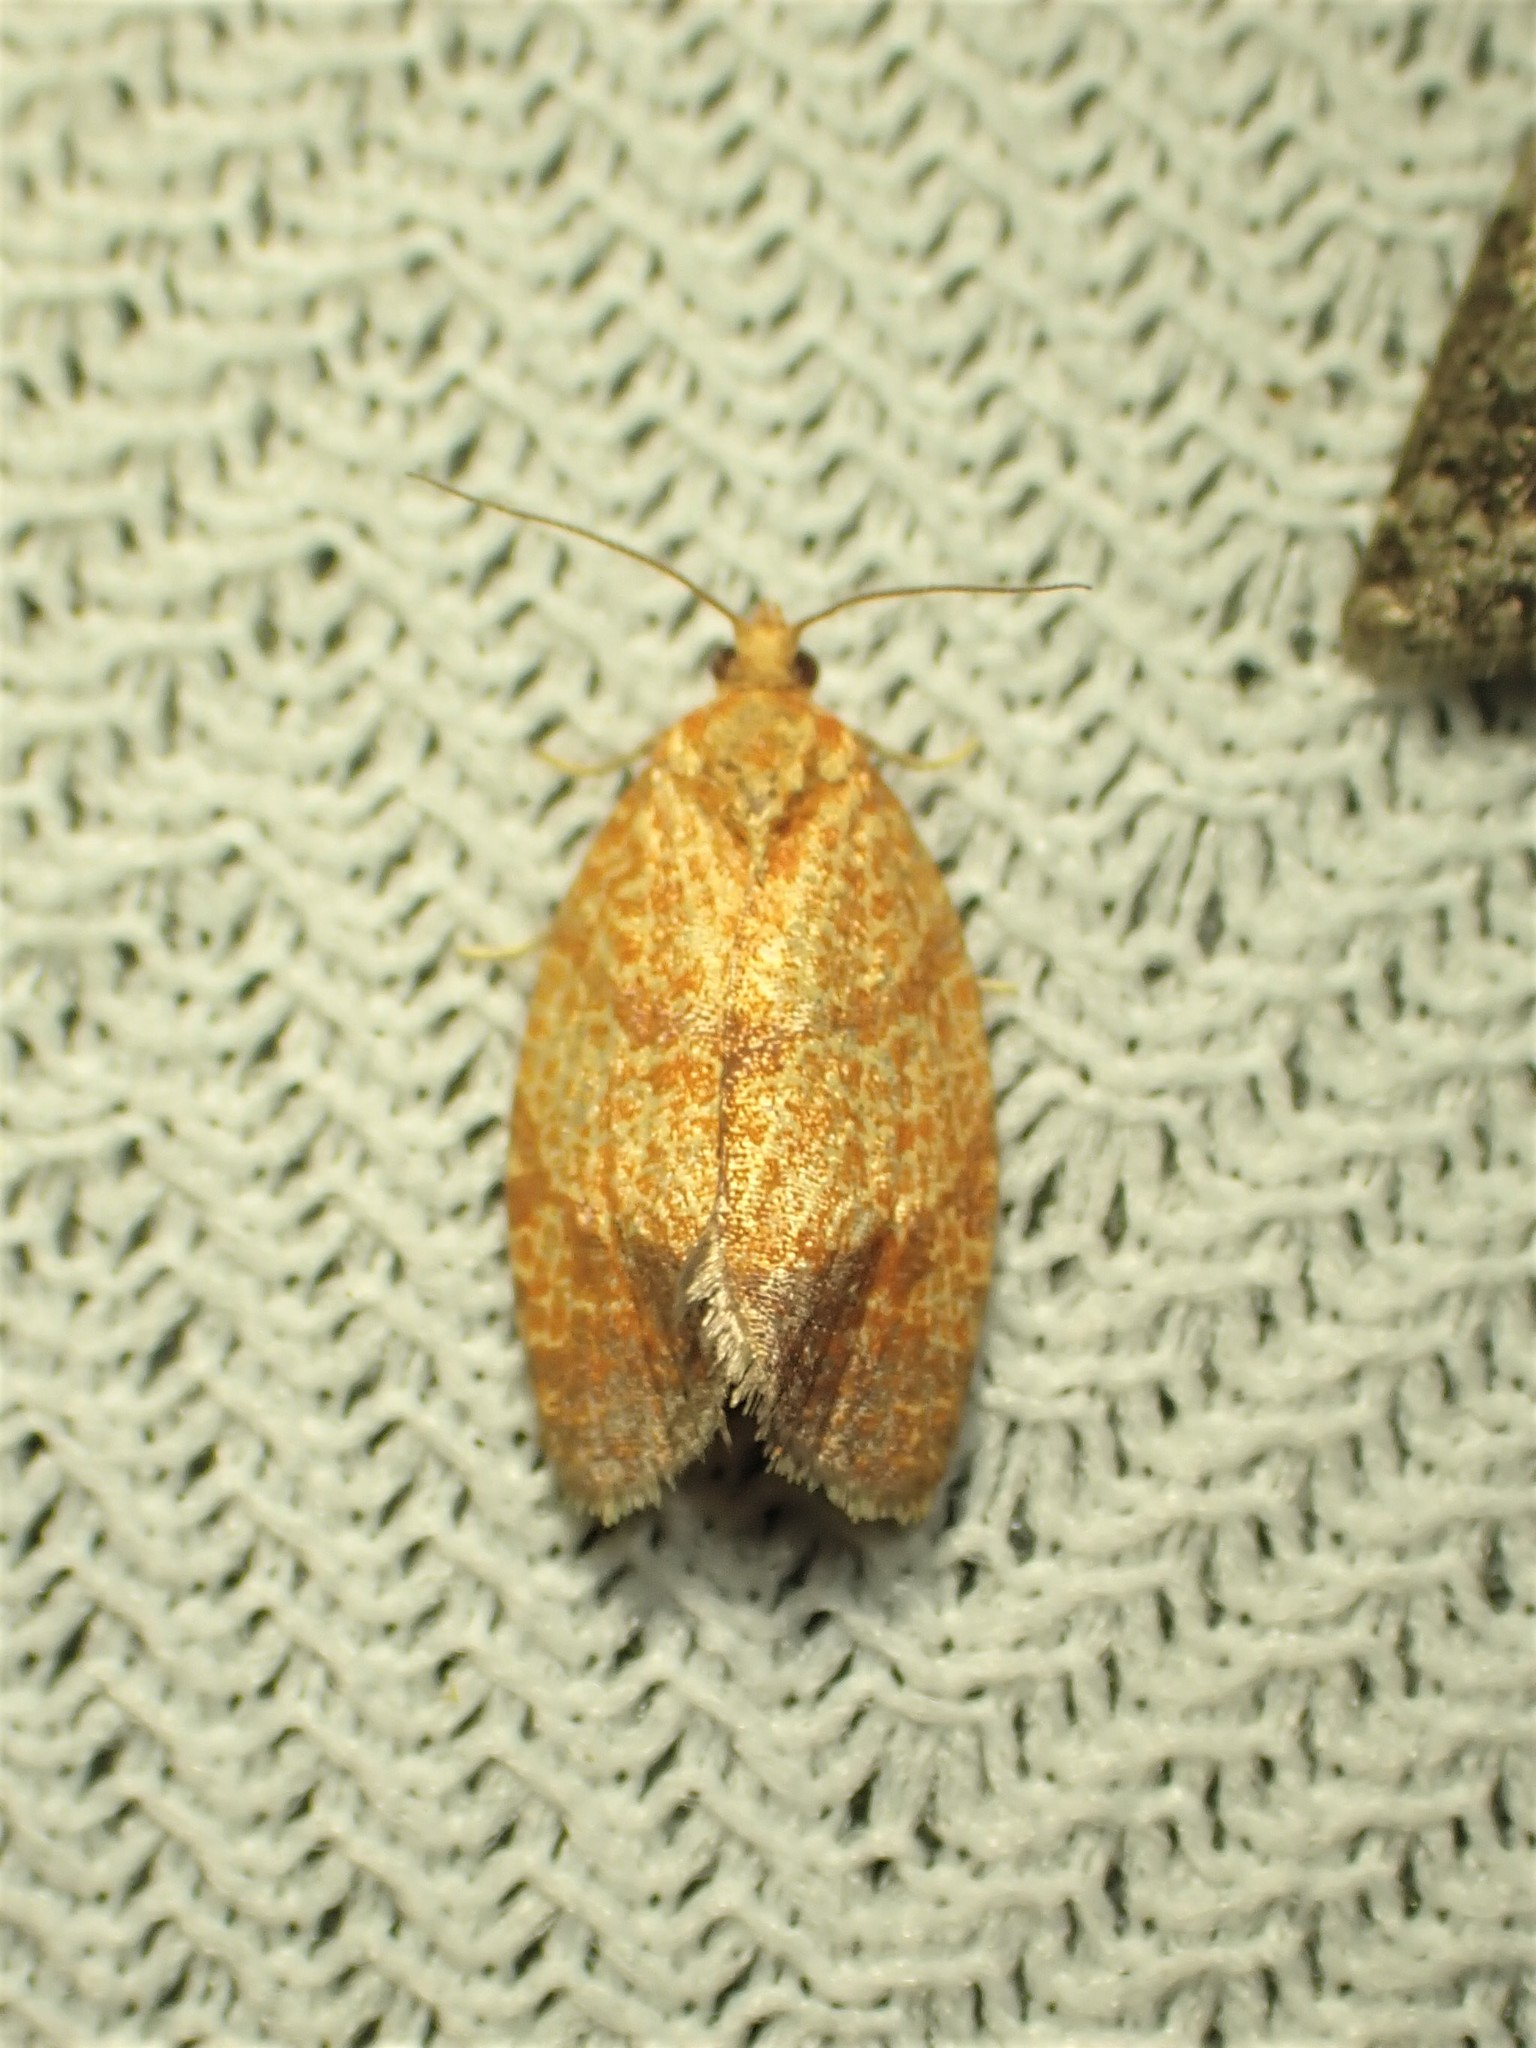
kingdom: Animalia
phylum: Arthropoda
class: Insecta
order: Lepidoptera
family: Tortricidae
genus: Argyrotaenia
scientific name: Argyrotaenia quadrifasciana
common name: Four-lined leafroller moth
